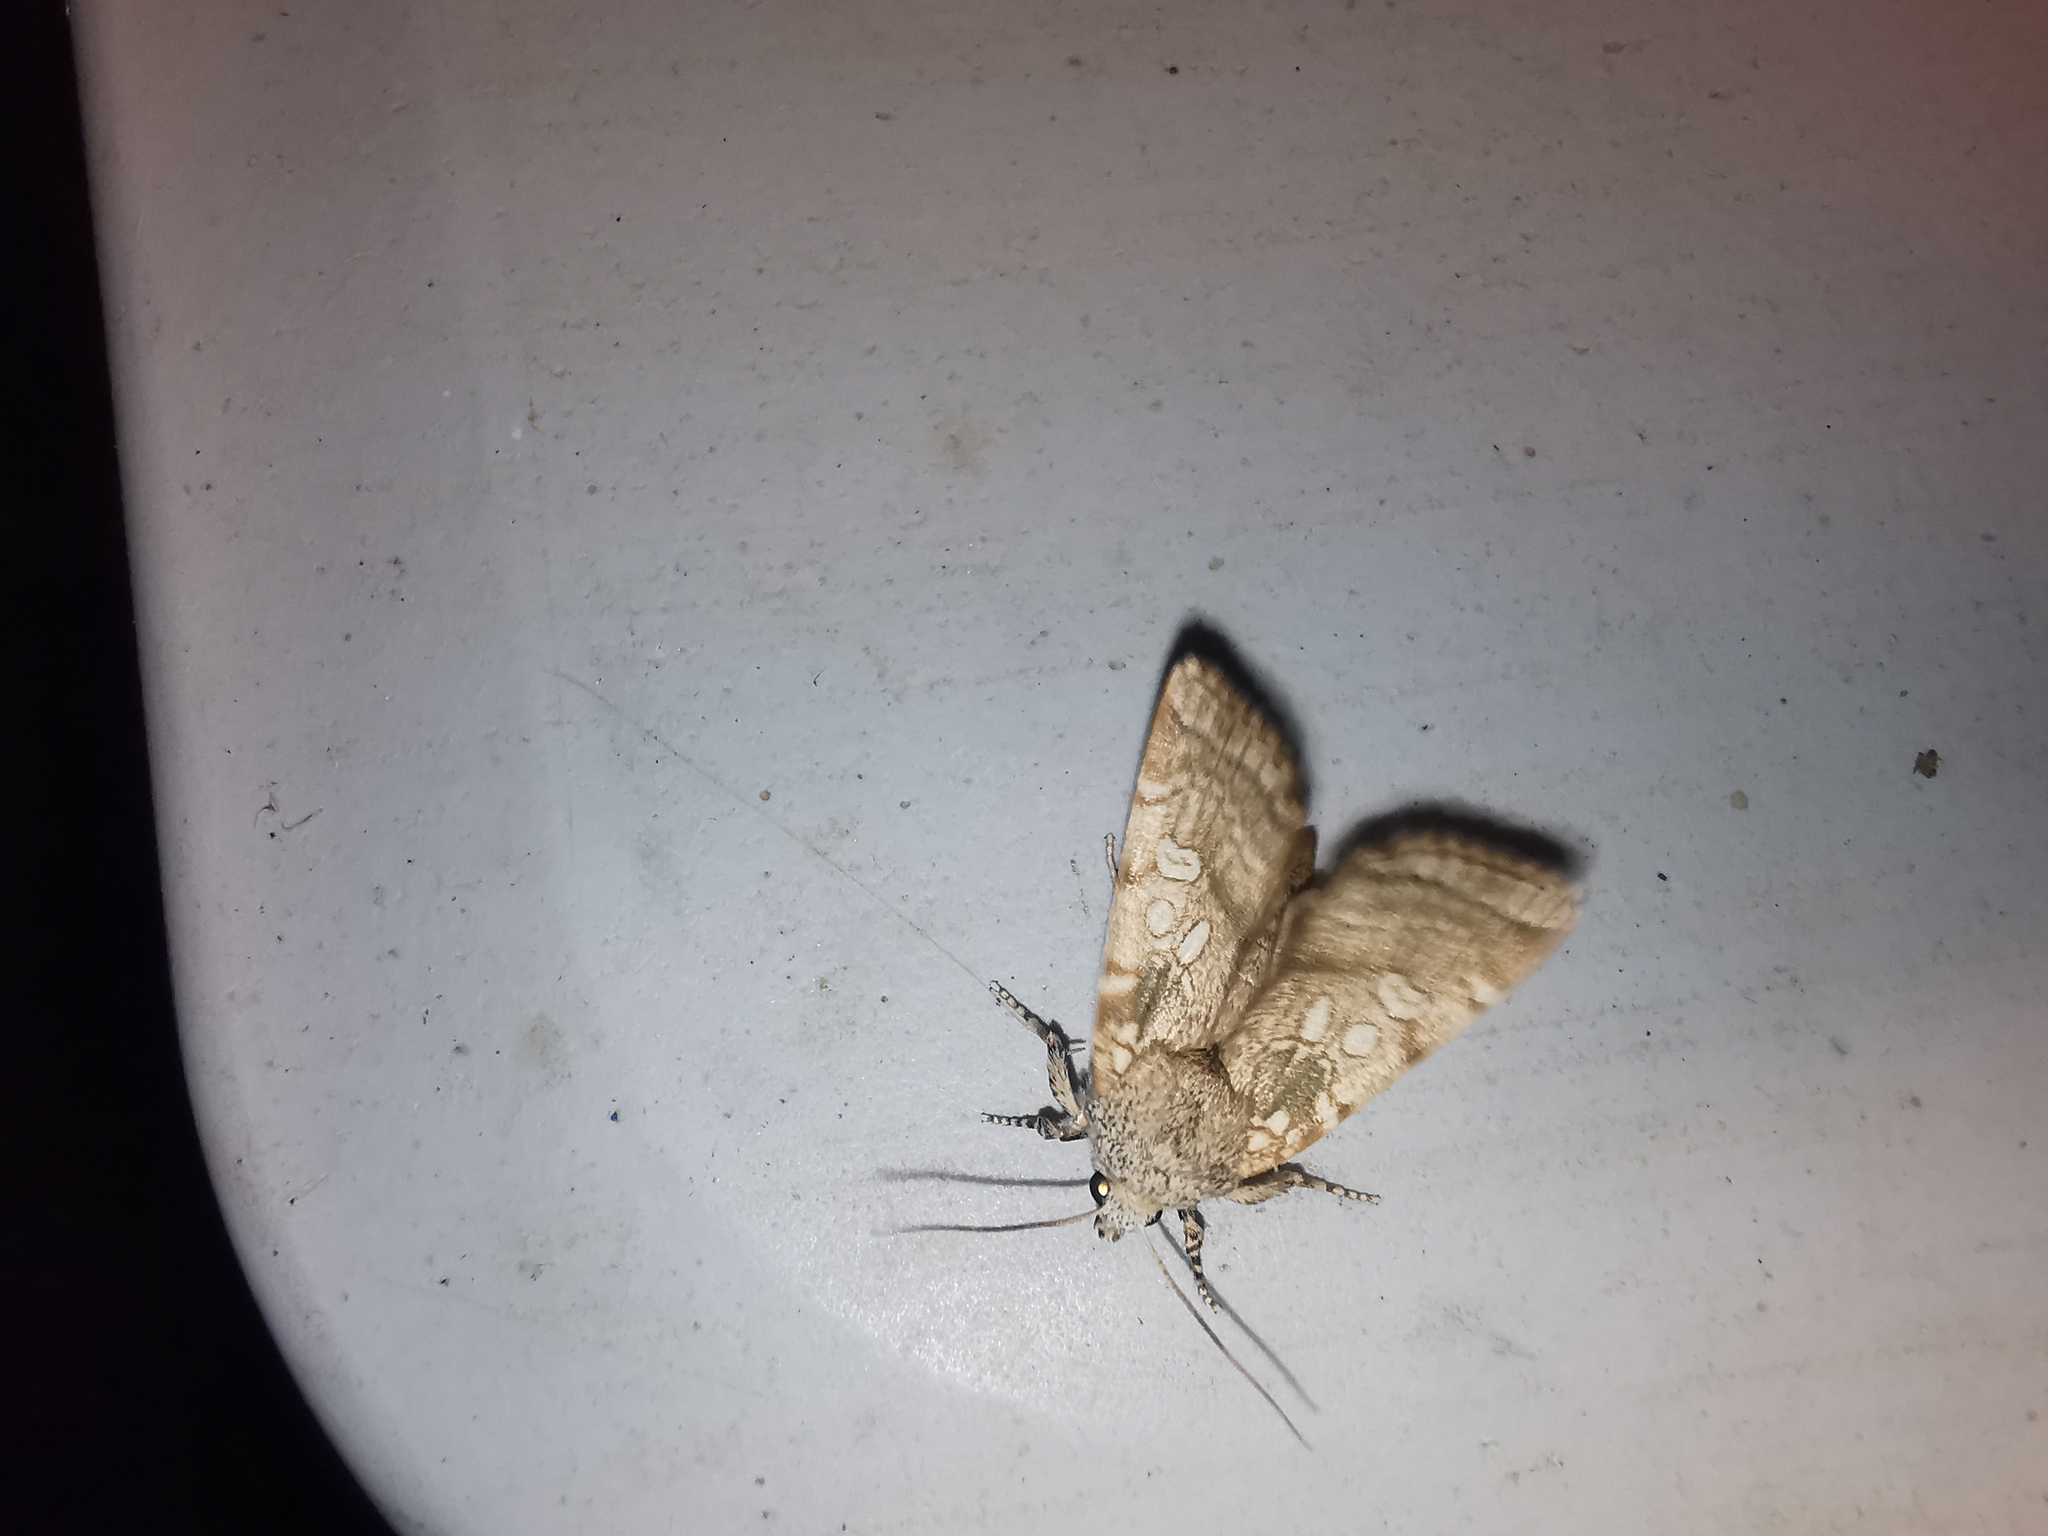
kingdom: Animalia
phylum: Arthropoda
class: Insecta
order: Lepidoptera
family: Noctuidae
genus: Dicycla
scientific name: Dicycla oo
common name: Heart moth
